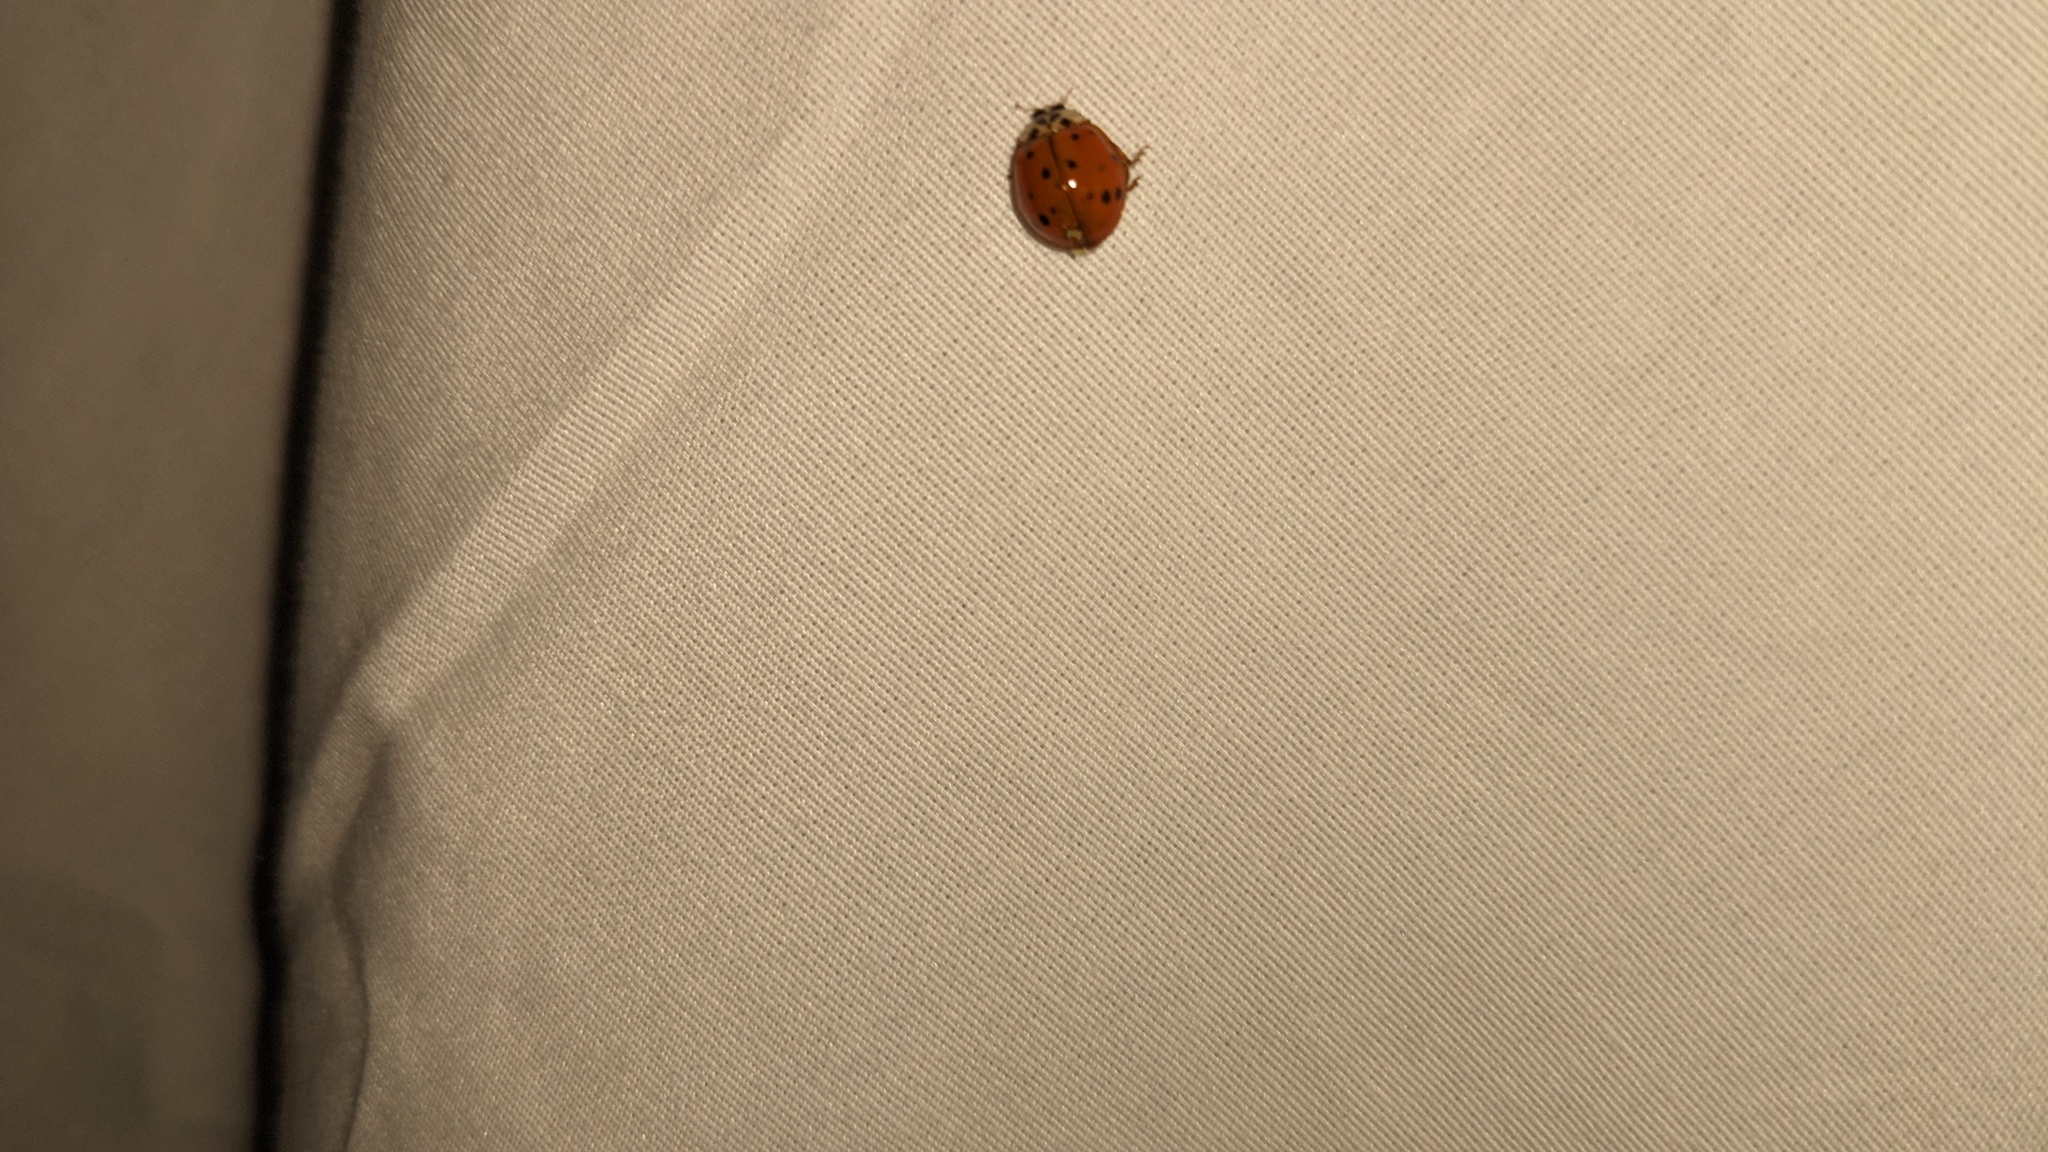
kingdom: Animalia
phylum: Arthropoda
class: Insecta
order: Coleoptera
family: Coccinellidae
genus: Harmonia
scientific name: Harmonia axyridis
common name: Harlequin ladybird
